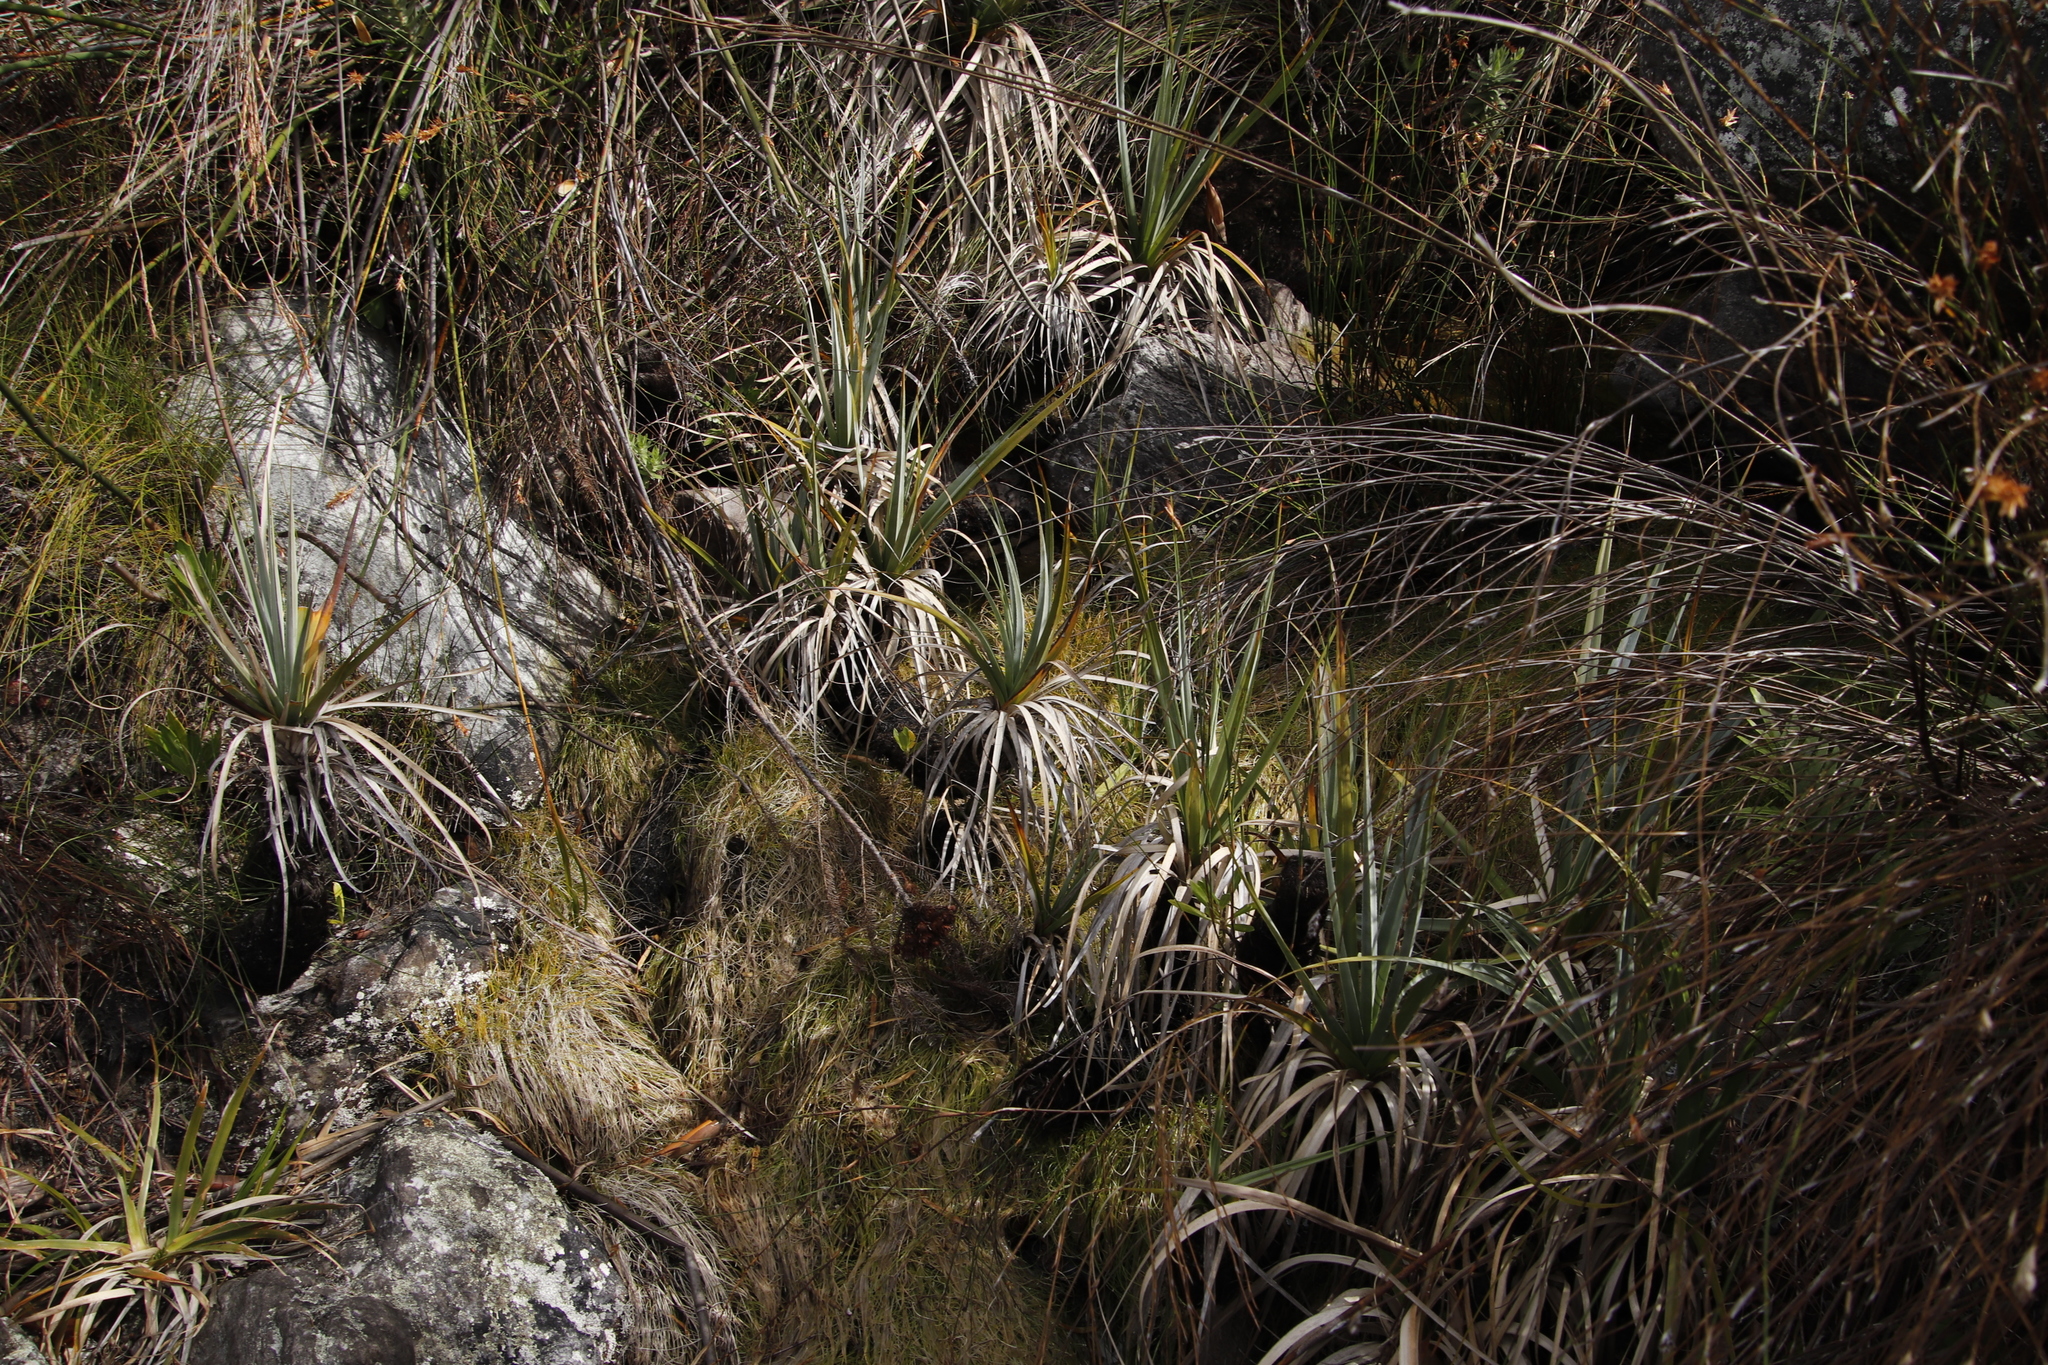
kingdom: Plantae
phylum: Tracheophyta
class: Liliopsida
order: Poales
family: Thurniaceae
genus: Prionium
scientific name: Prionium serratum
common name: Palmiet
